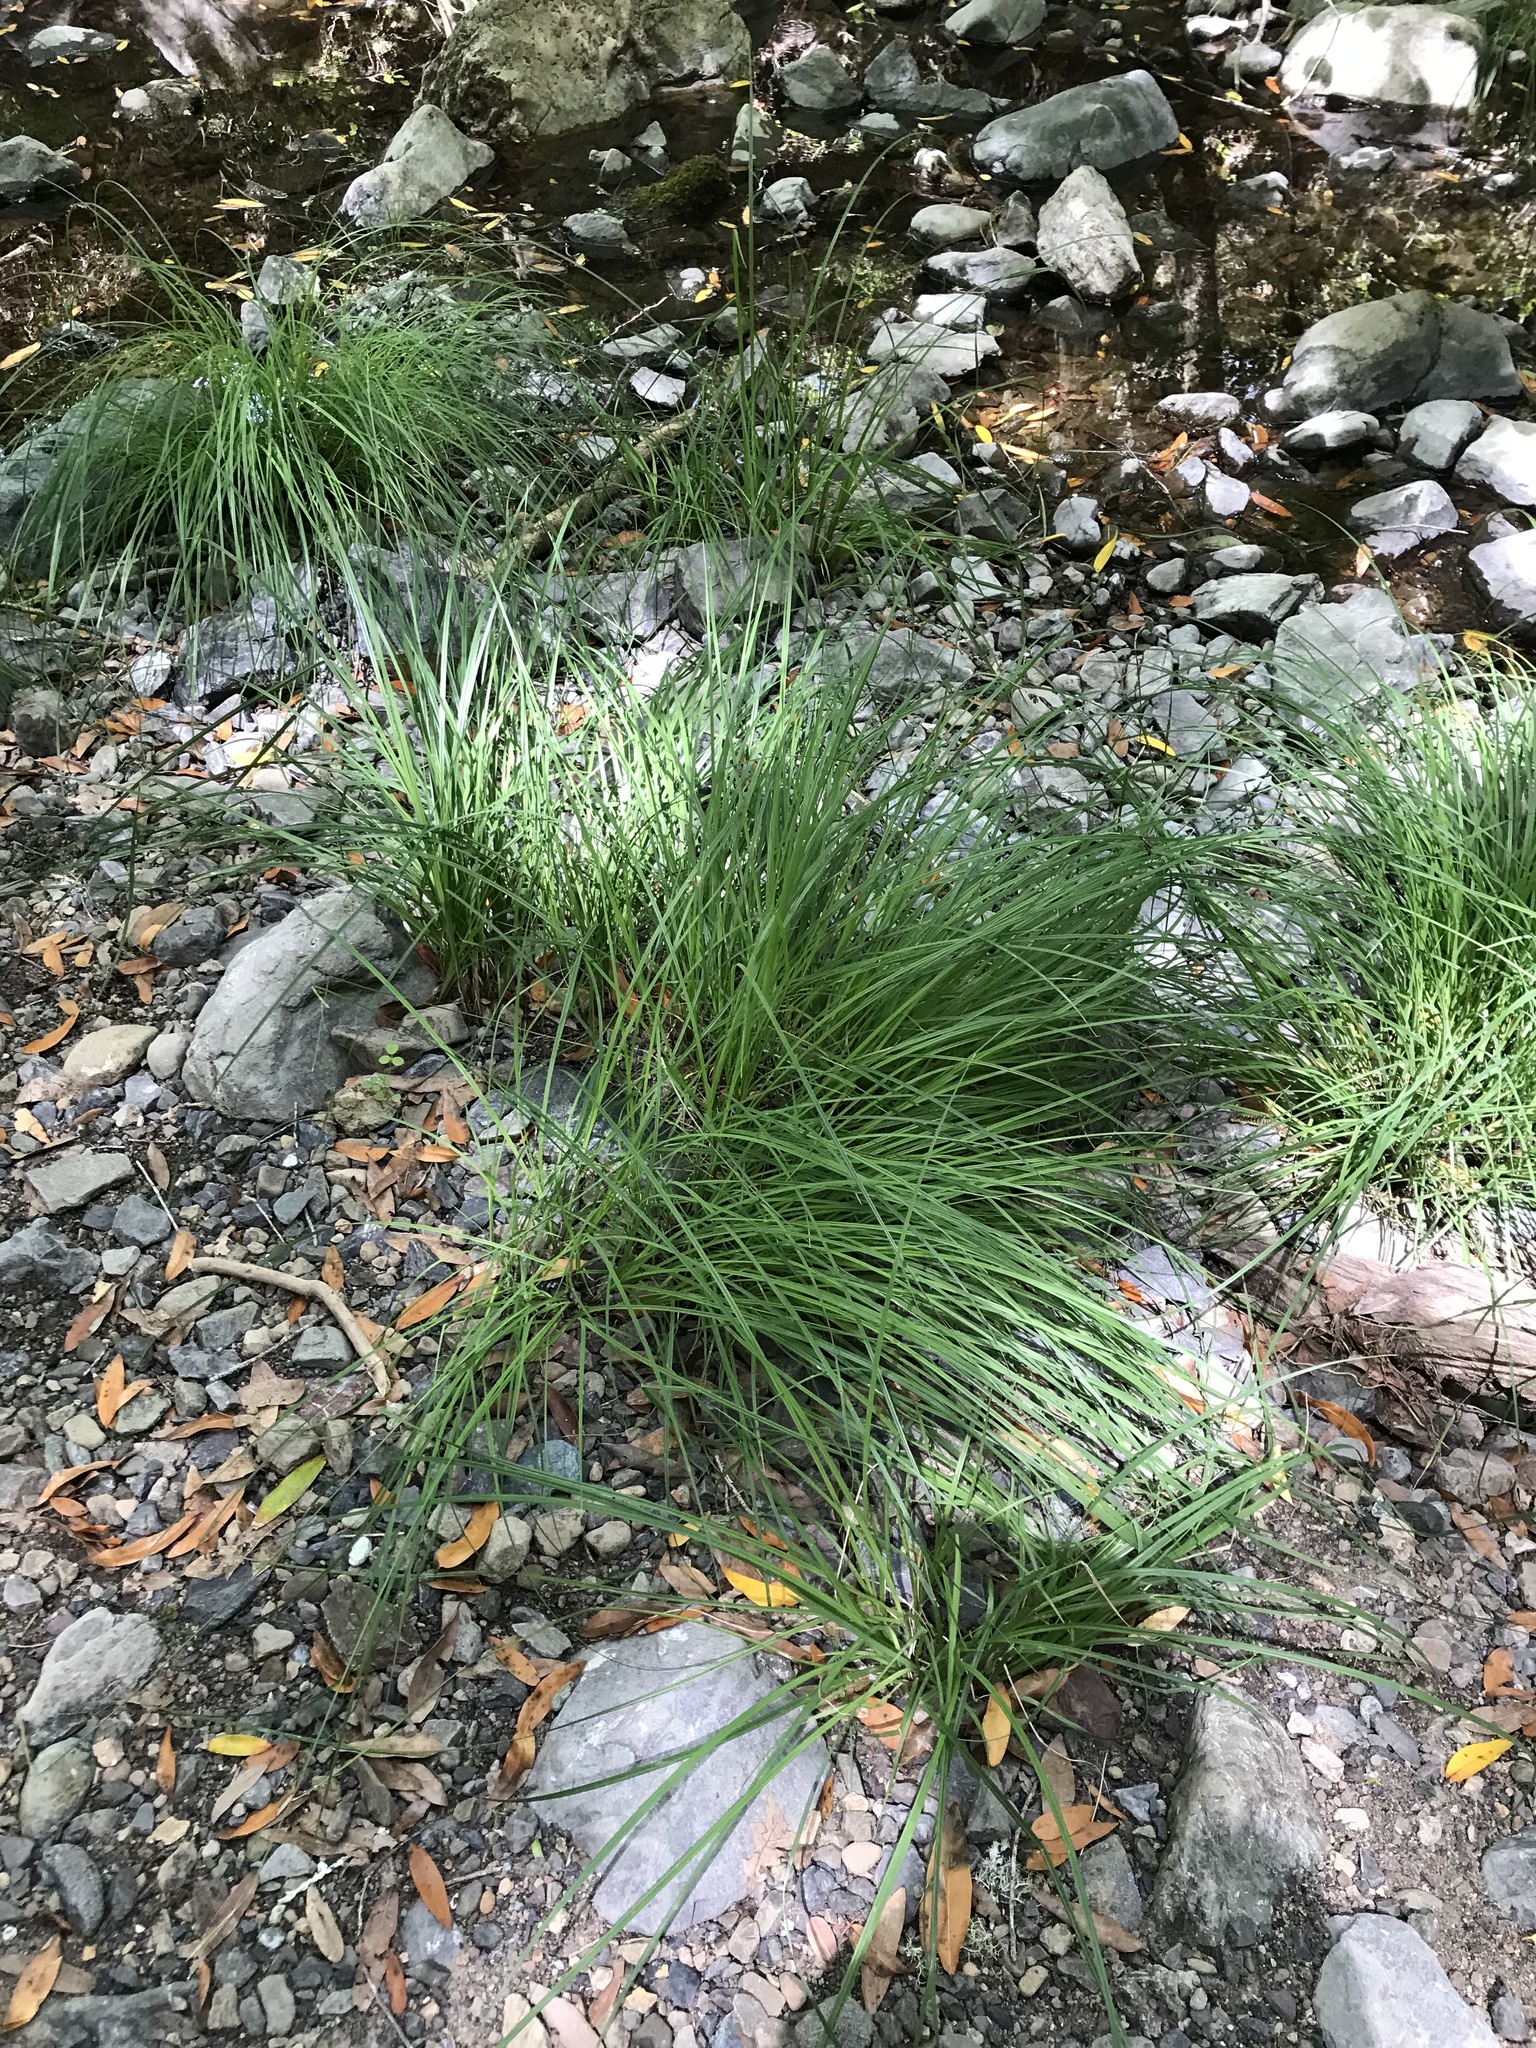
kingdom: Plantae
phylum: Tracheophyta
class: Liliopsida
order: Poales
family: Cyperaceae
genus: Carex
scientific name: Carex nudata
